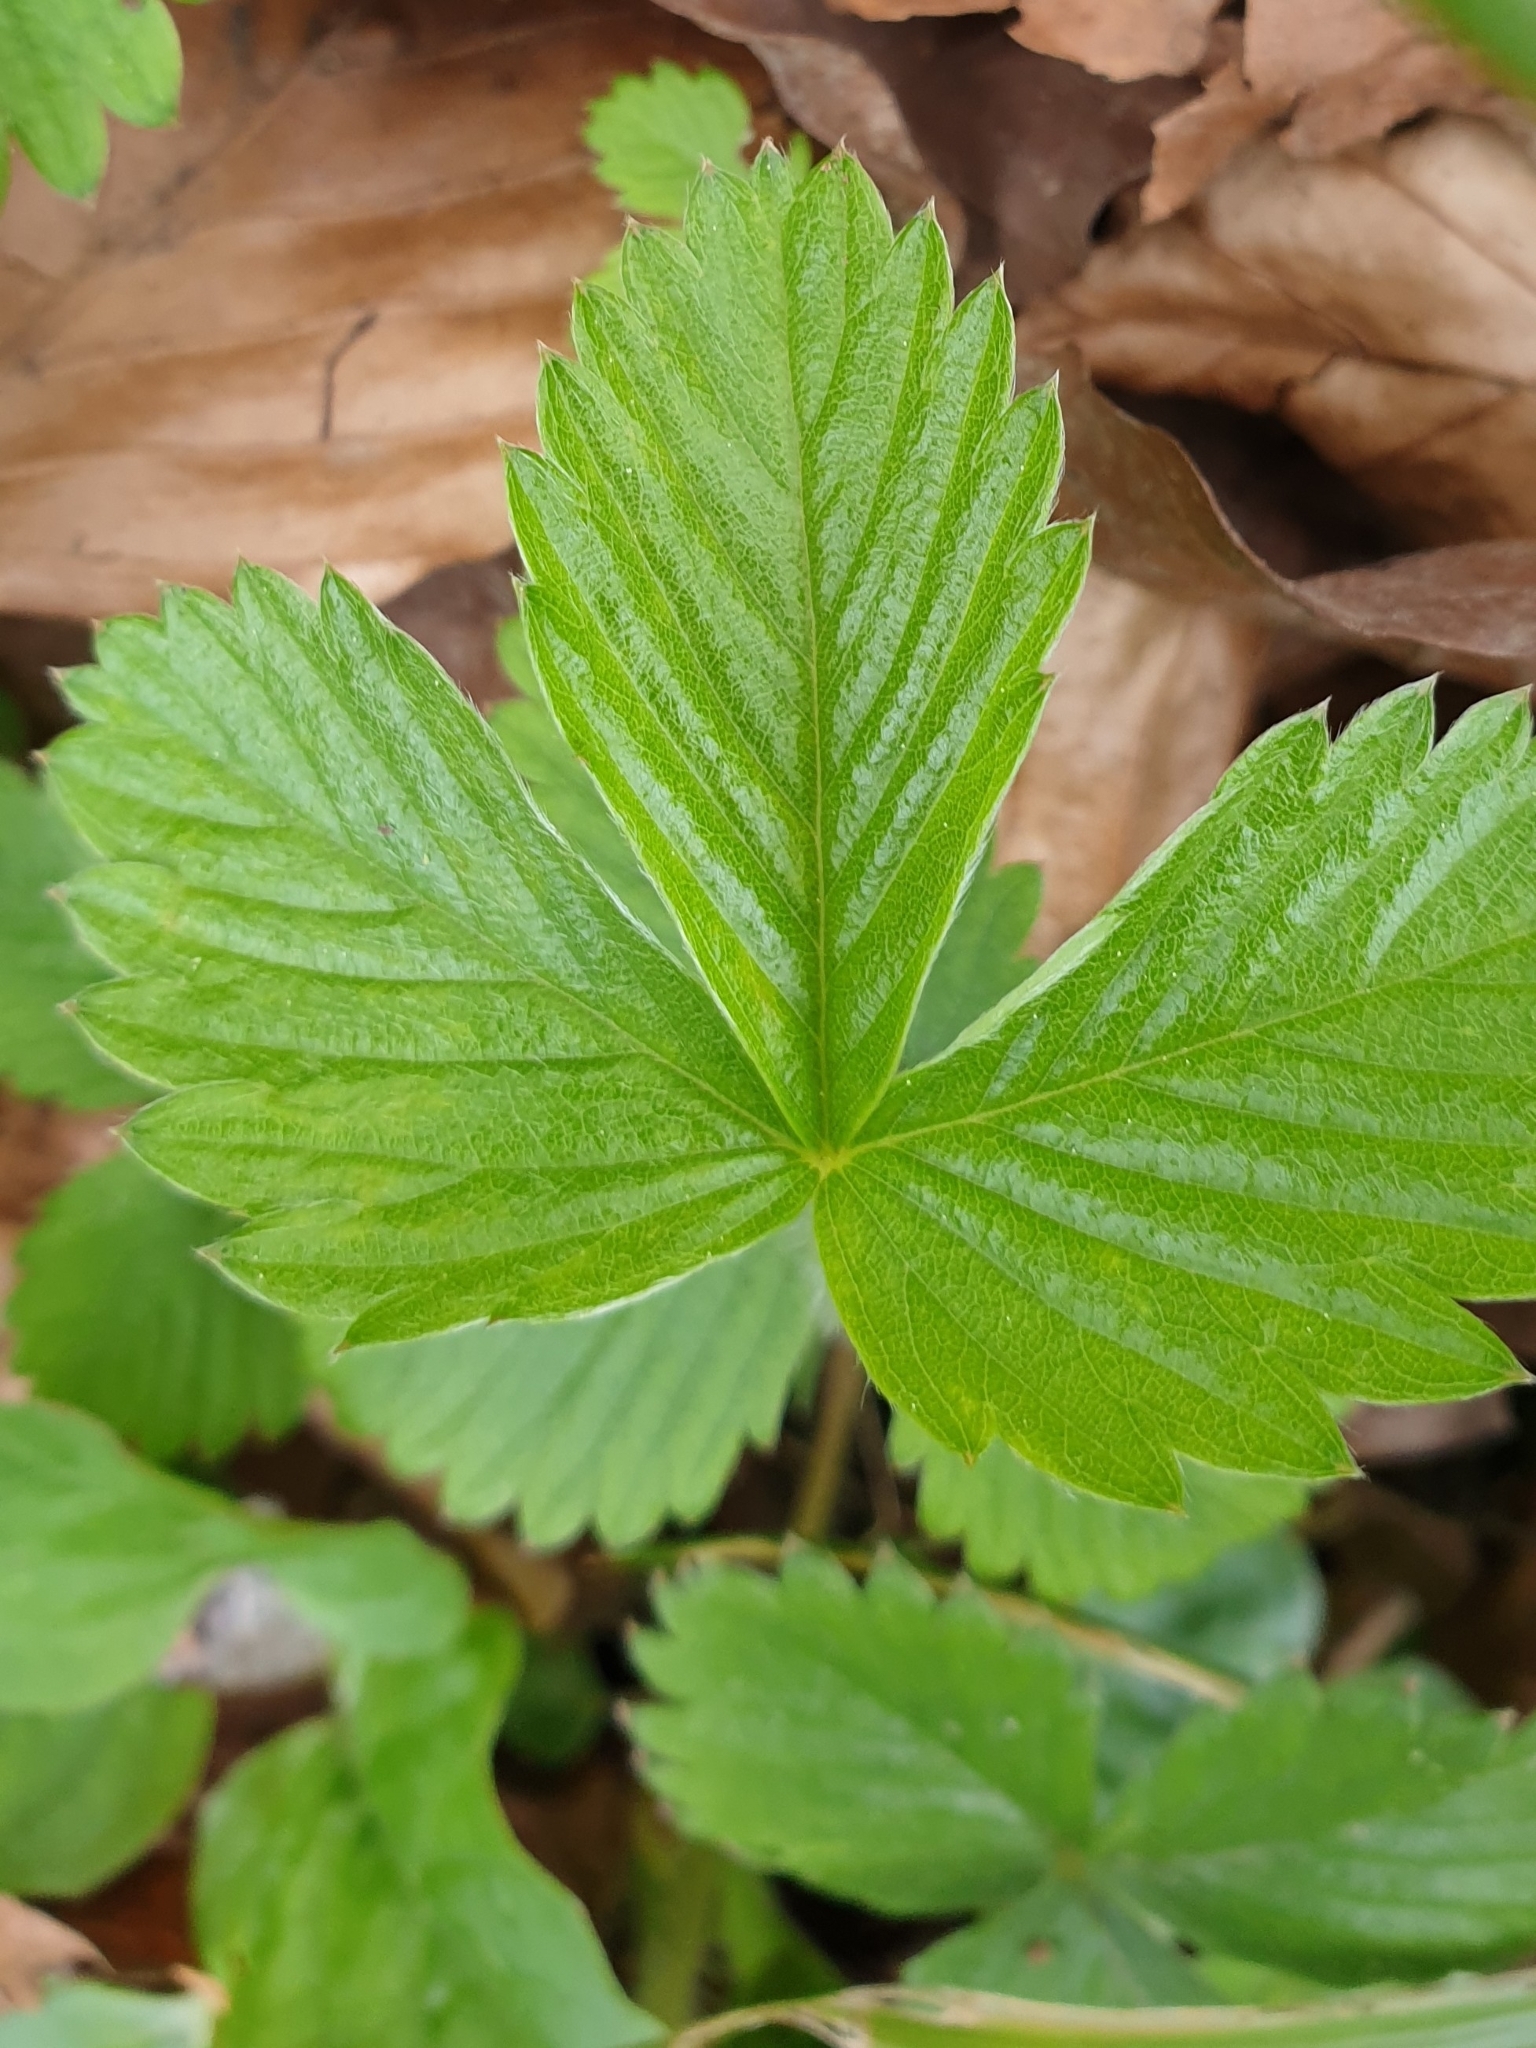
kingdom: Plantae
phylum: Tracheophyta
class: Magnoliopsida
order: Rosales
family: Rosaceae
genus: Fragaria
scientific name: Fragaria vesca
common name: Wild strawberry
